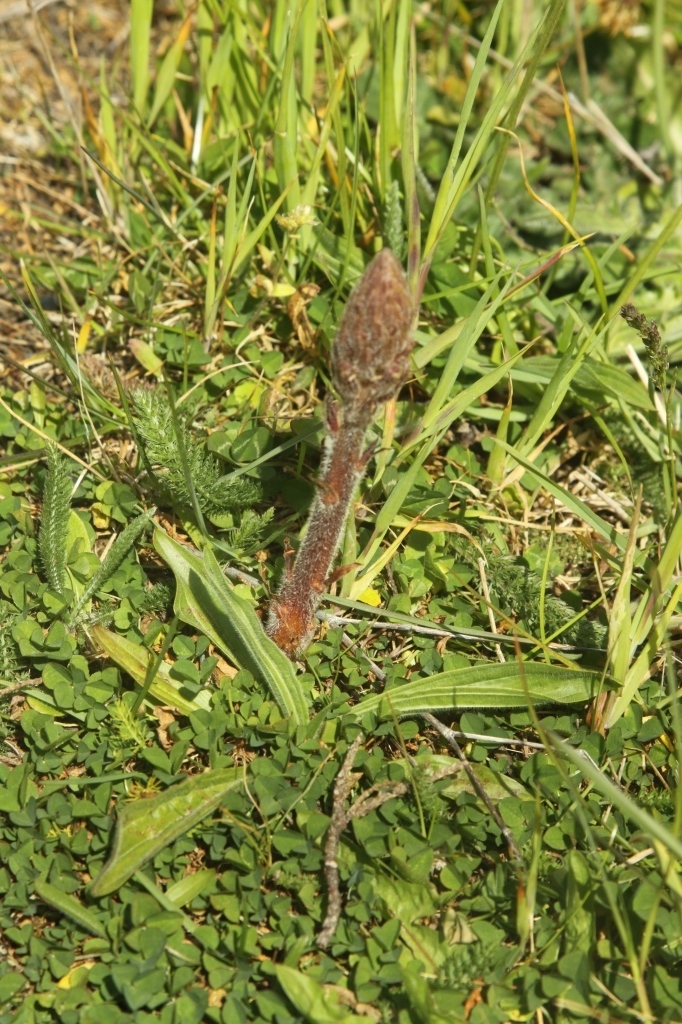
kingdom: Plantae
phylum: Tracheophyta
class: Magnoliopsida
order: Lamiales
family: Orobanchaceae
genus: Orobanche
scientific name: Orobanche minor
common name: Common broomrape
